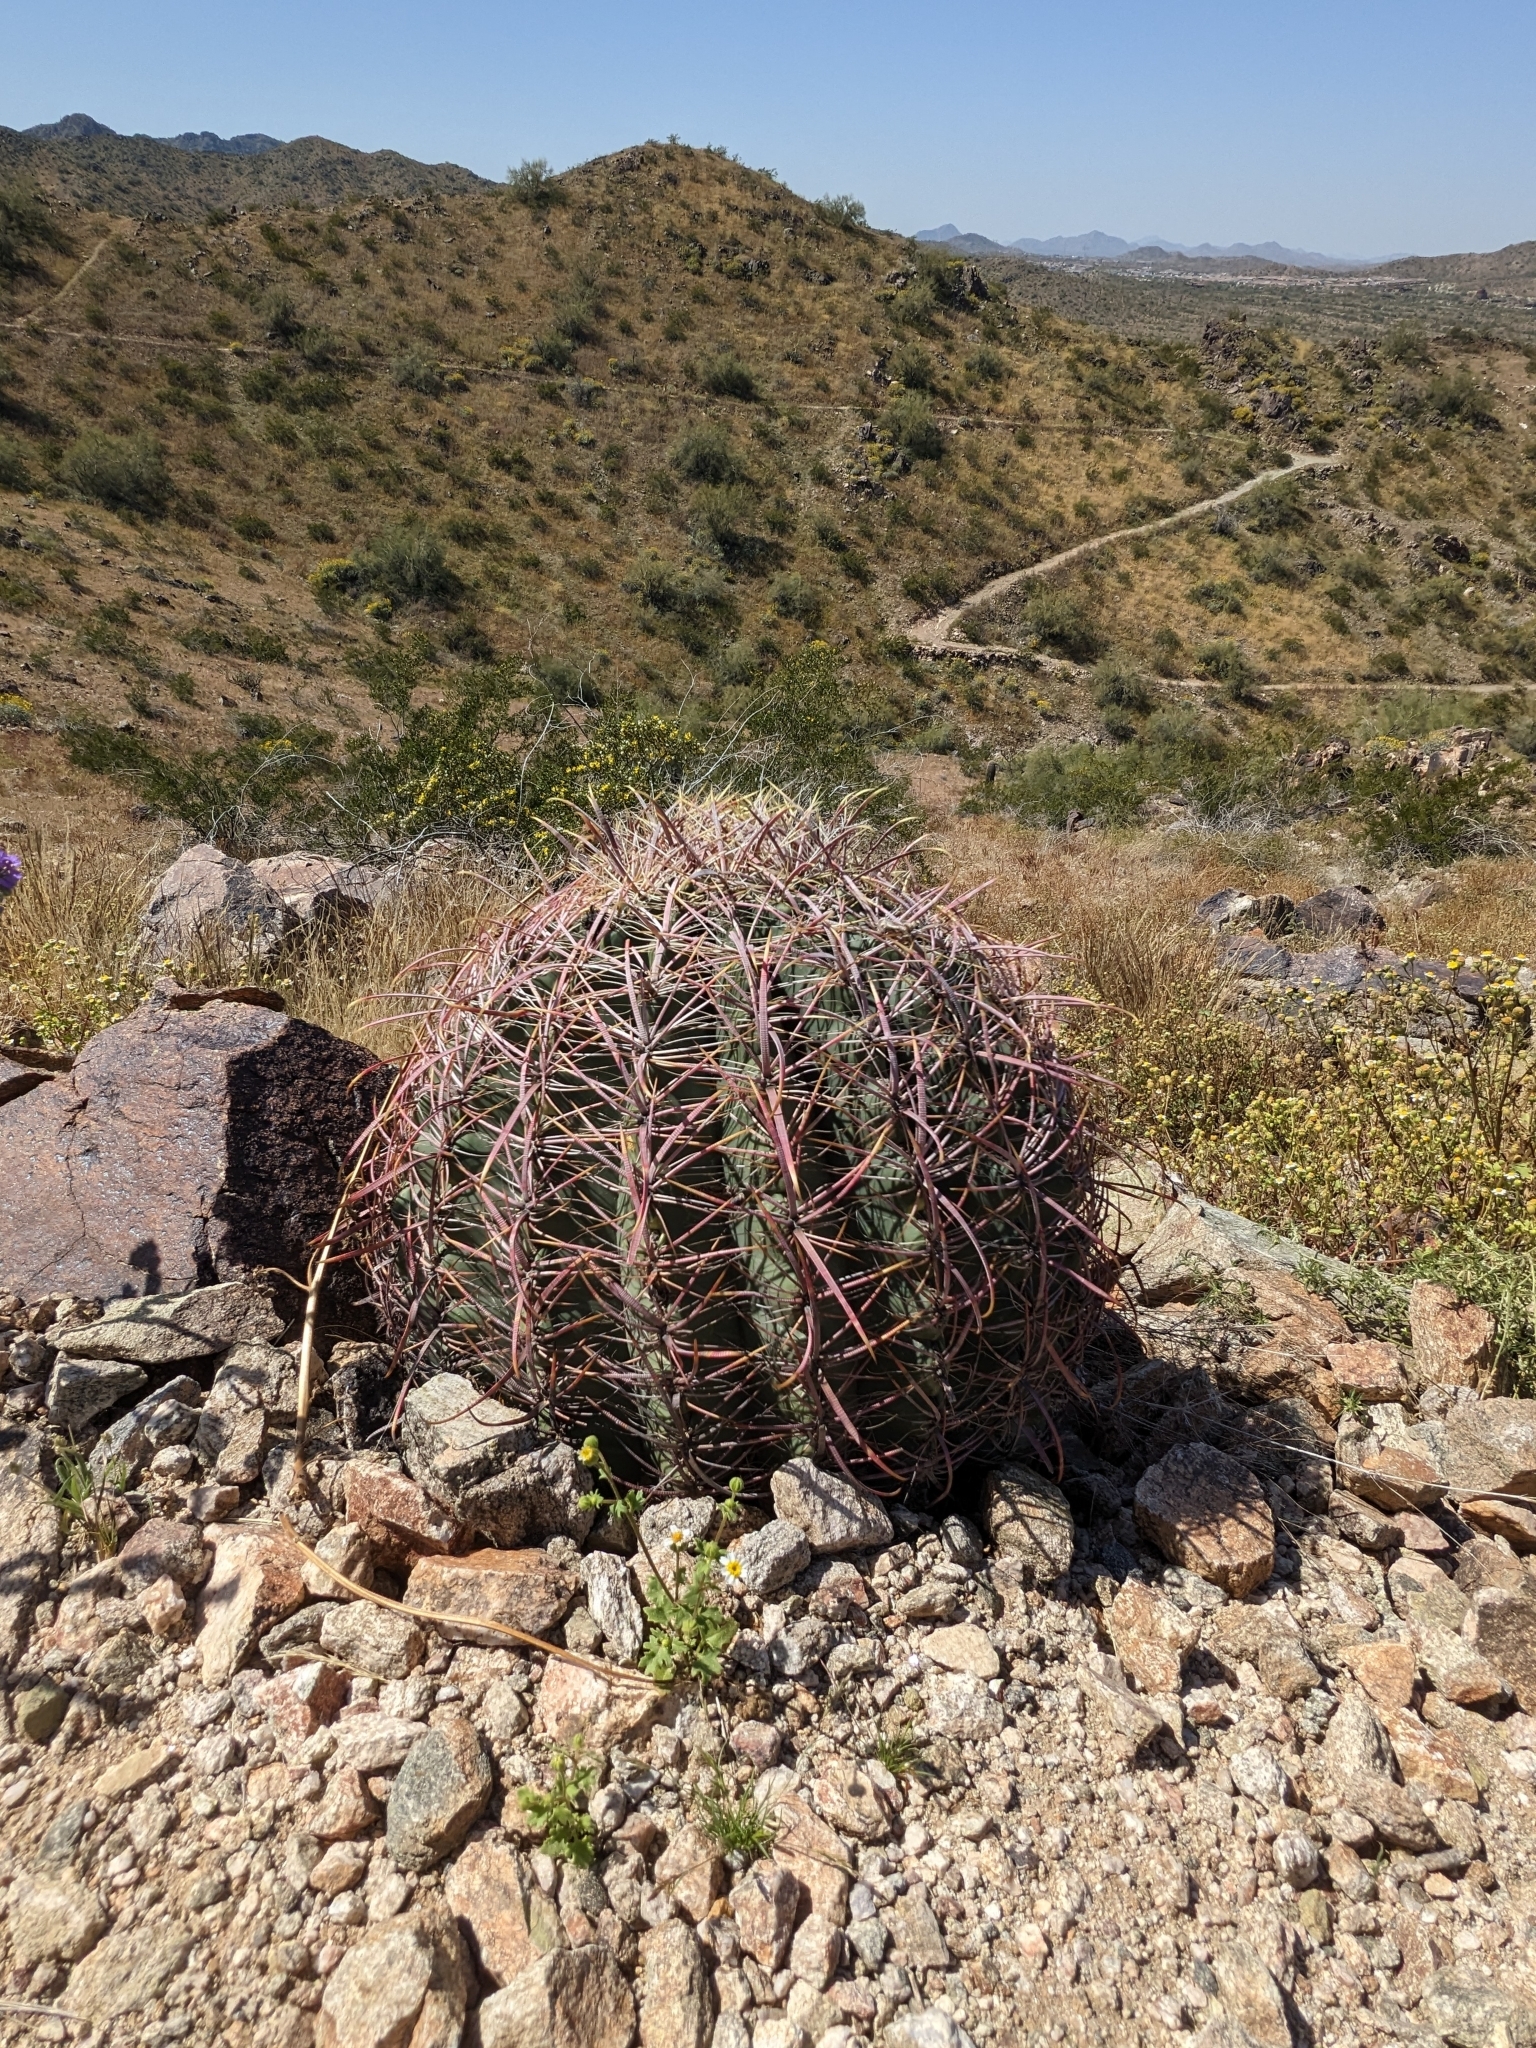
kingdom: Plantae
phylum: Tracheophyta
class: Magnoliopsida
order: Caryophyllales
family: Cactaceae
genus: Ferocactus
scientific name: Ferocactus cylindraceus
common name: California barrel cactus
